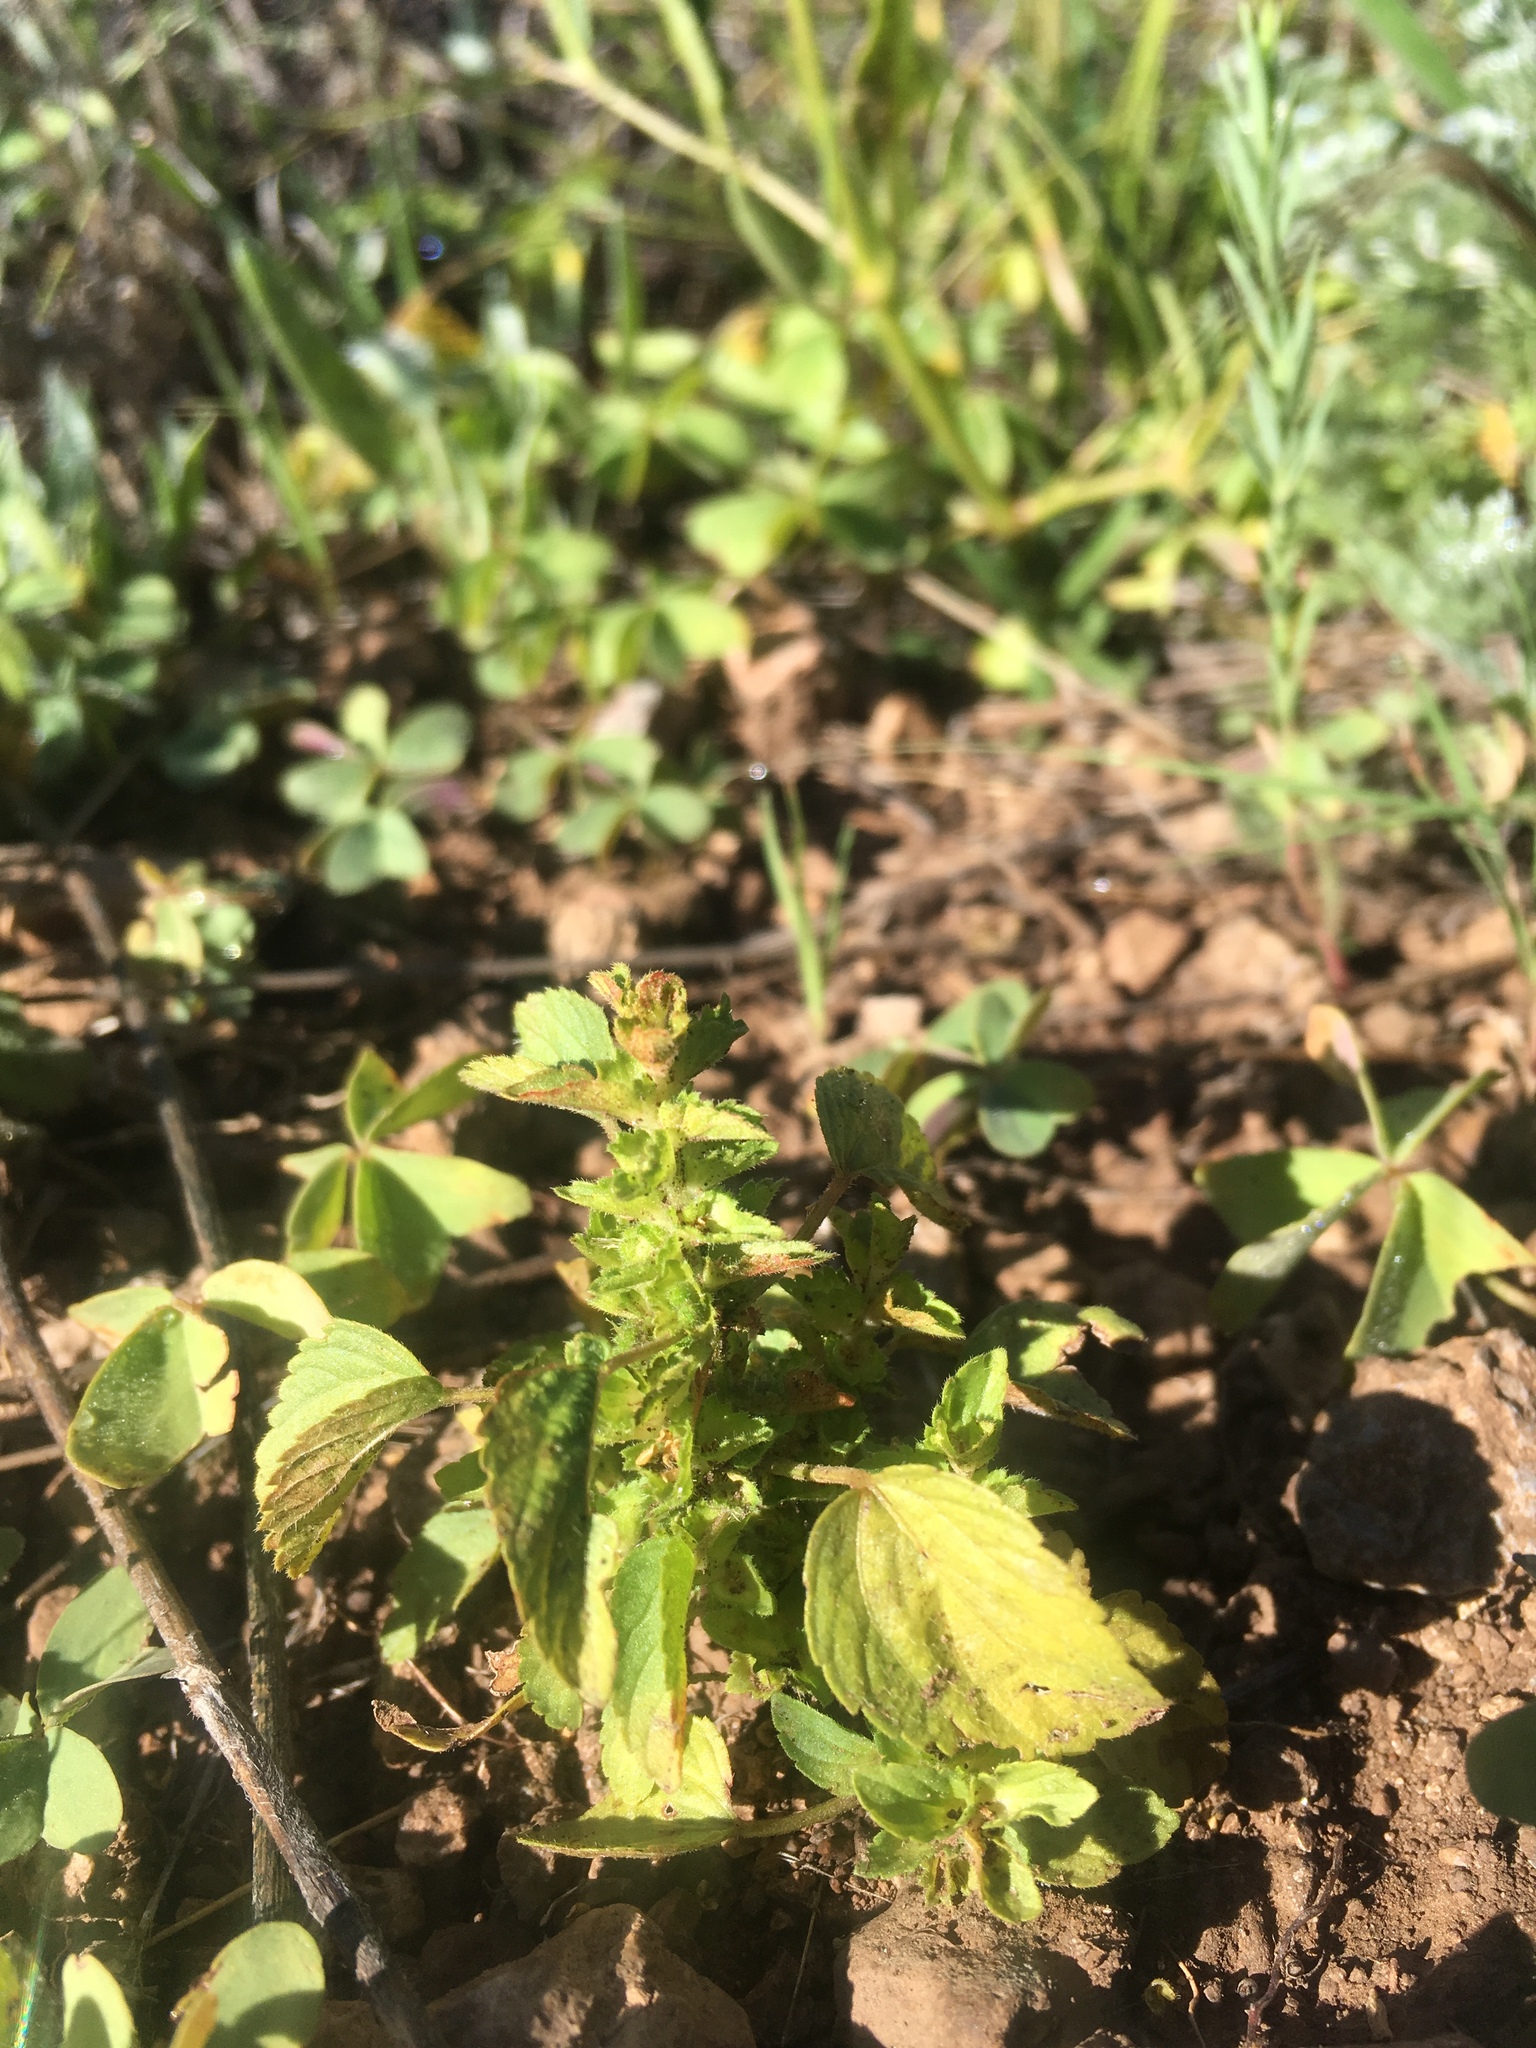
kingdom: Plantae
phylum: Tracheophyta
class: Magnoliopsida
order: Malpighiales
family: Euphorbiaceae
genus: Acalypha
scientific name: Acalypha neomexicana
